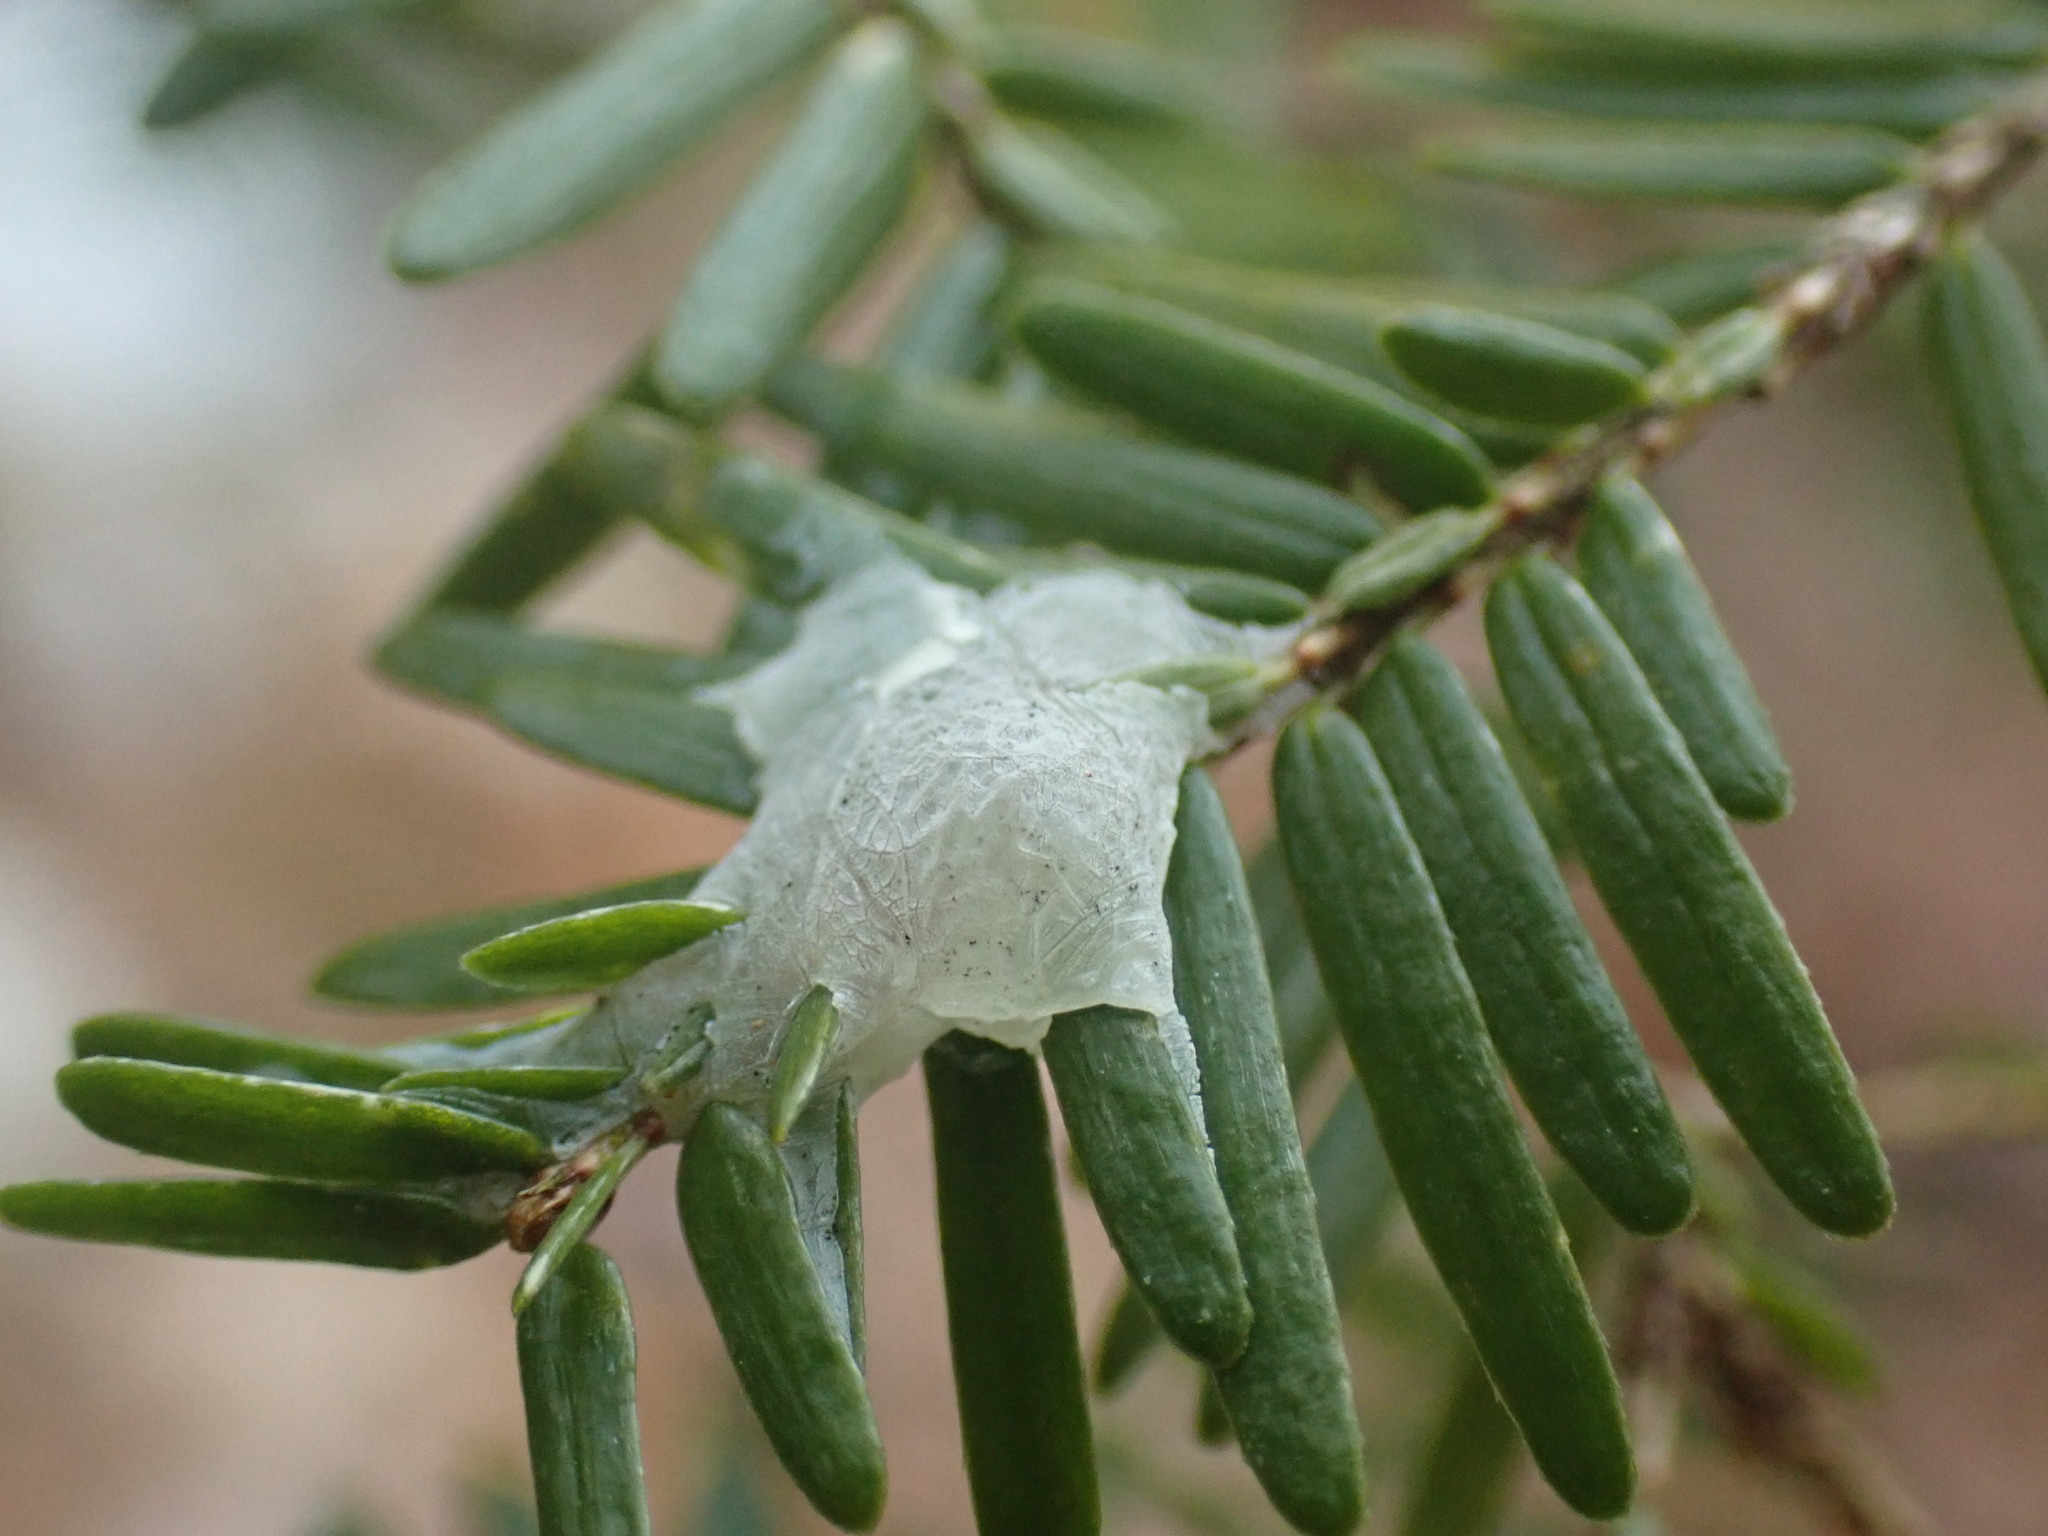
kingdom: Plantae
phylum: Tracheophyta
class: Pinopsida
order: Pinales
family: Pinaceae
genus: Tsuga
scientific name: Tsuga canadensis
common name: Eastern hemlock
